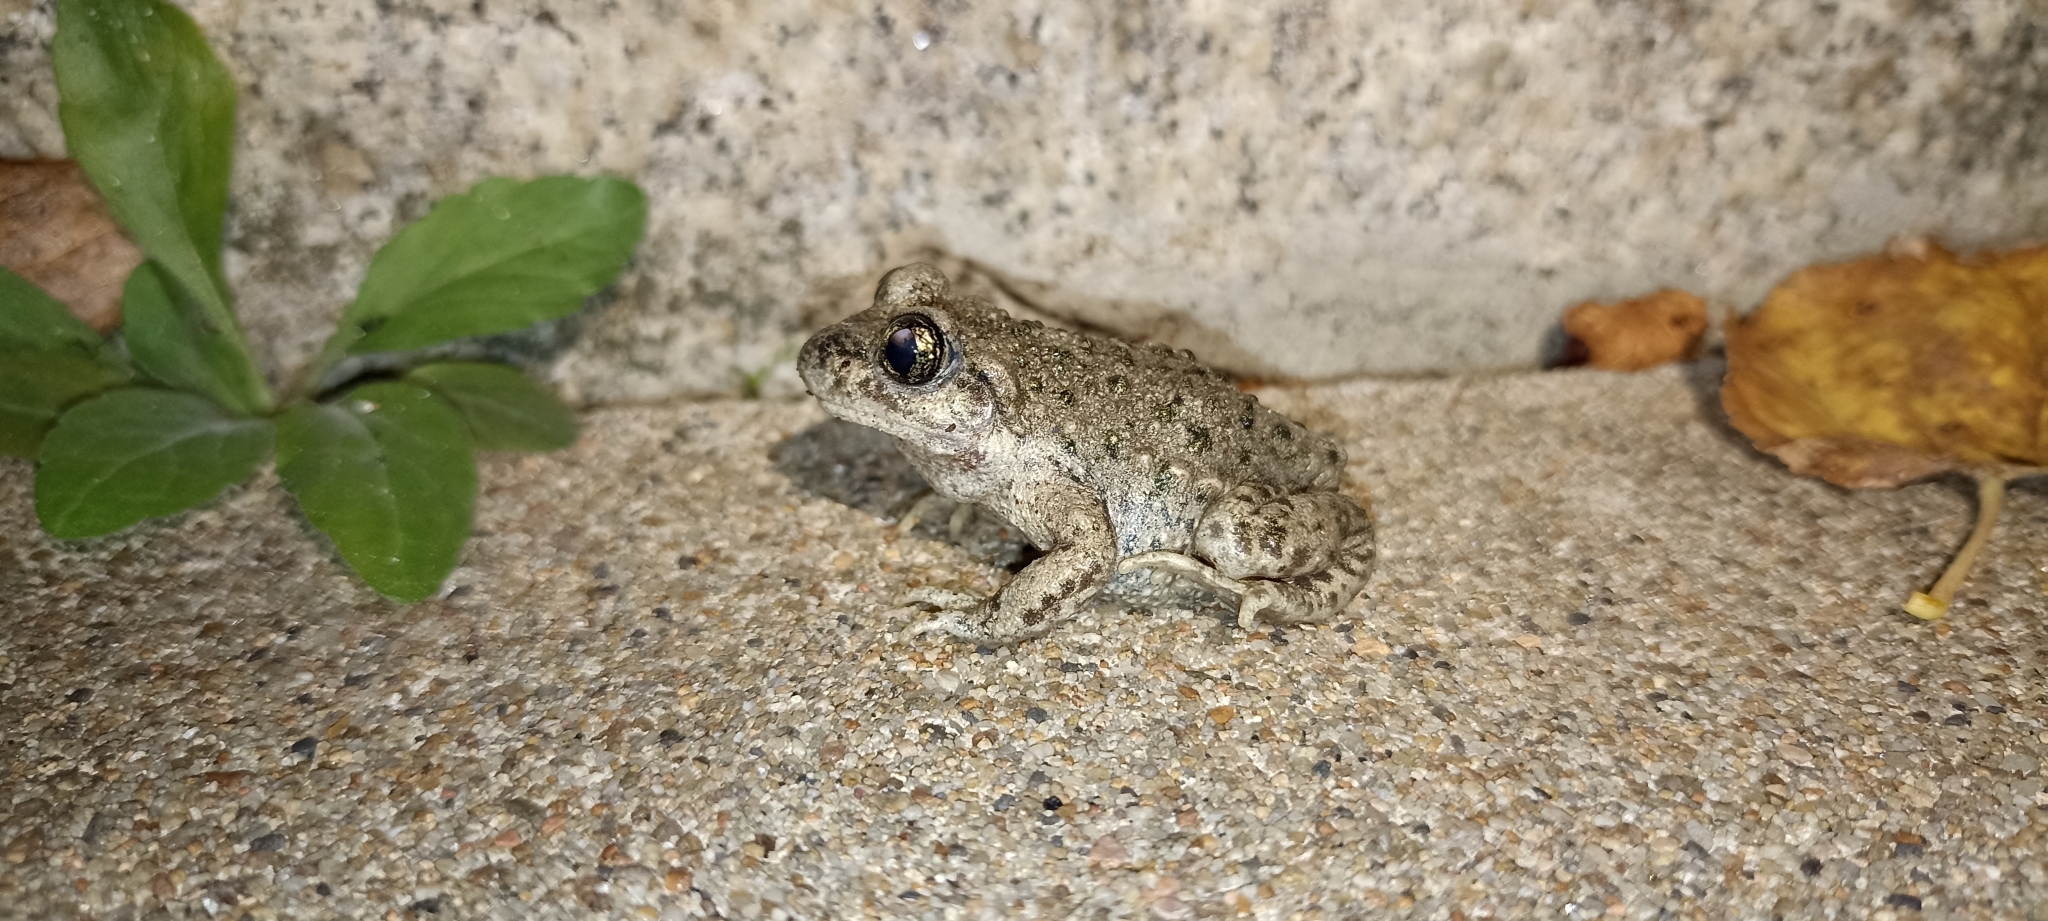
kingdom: Animalia
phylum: Chordata
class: Amphibia
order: Anura
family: Alytidae
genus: Alytes
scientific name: Alytes obstetricans
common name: Midwife toad
